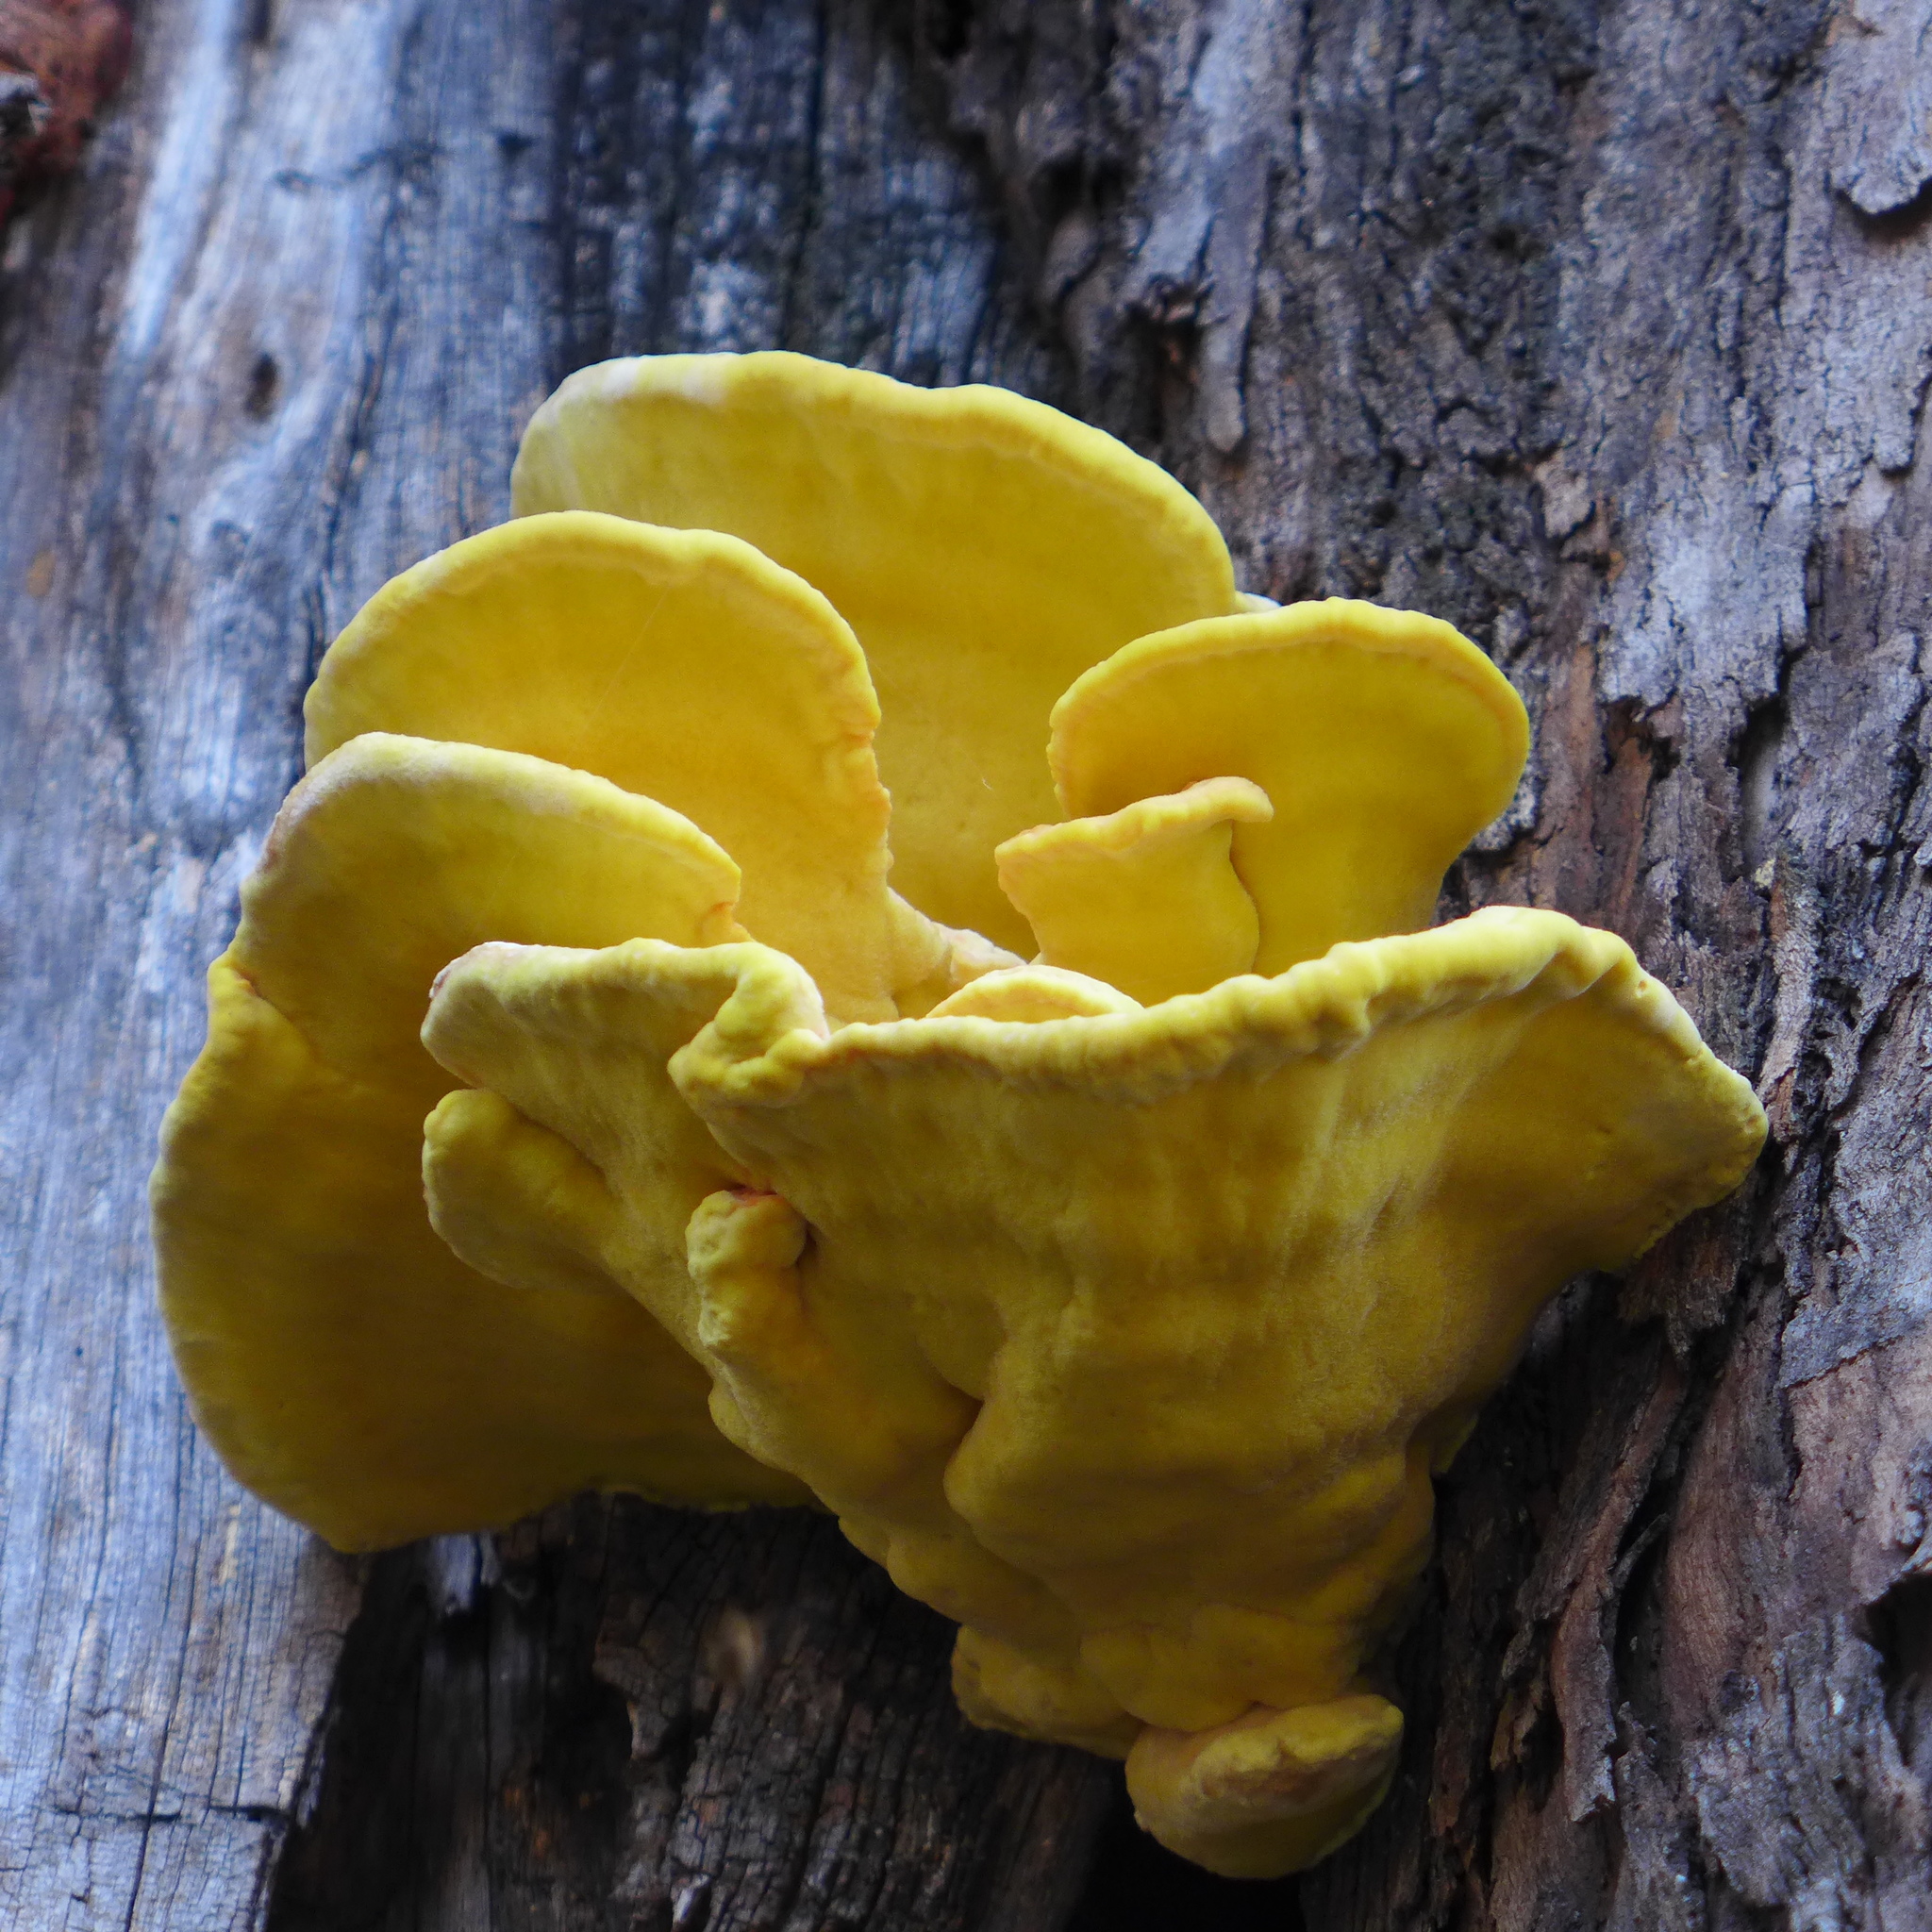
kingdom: Fungi
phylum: Basidiomycota
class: Agaricomycetes
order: Polyporales
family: Laetiporaceae
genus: Laetiporus
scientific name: Laetiporus gilbertsonii
